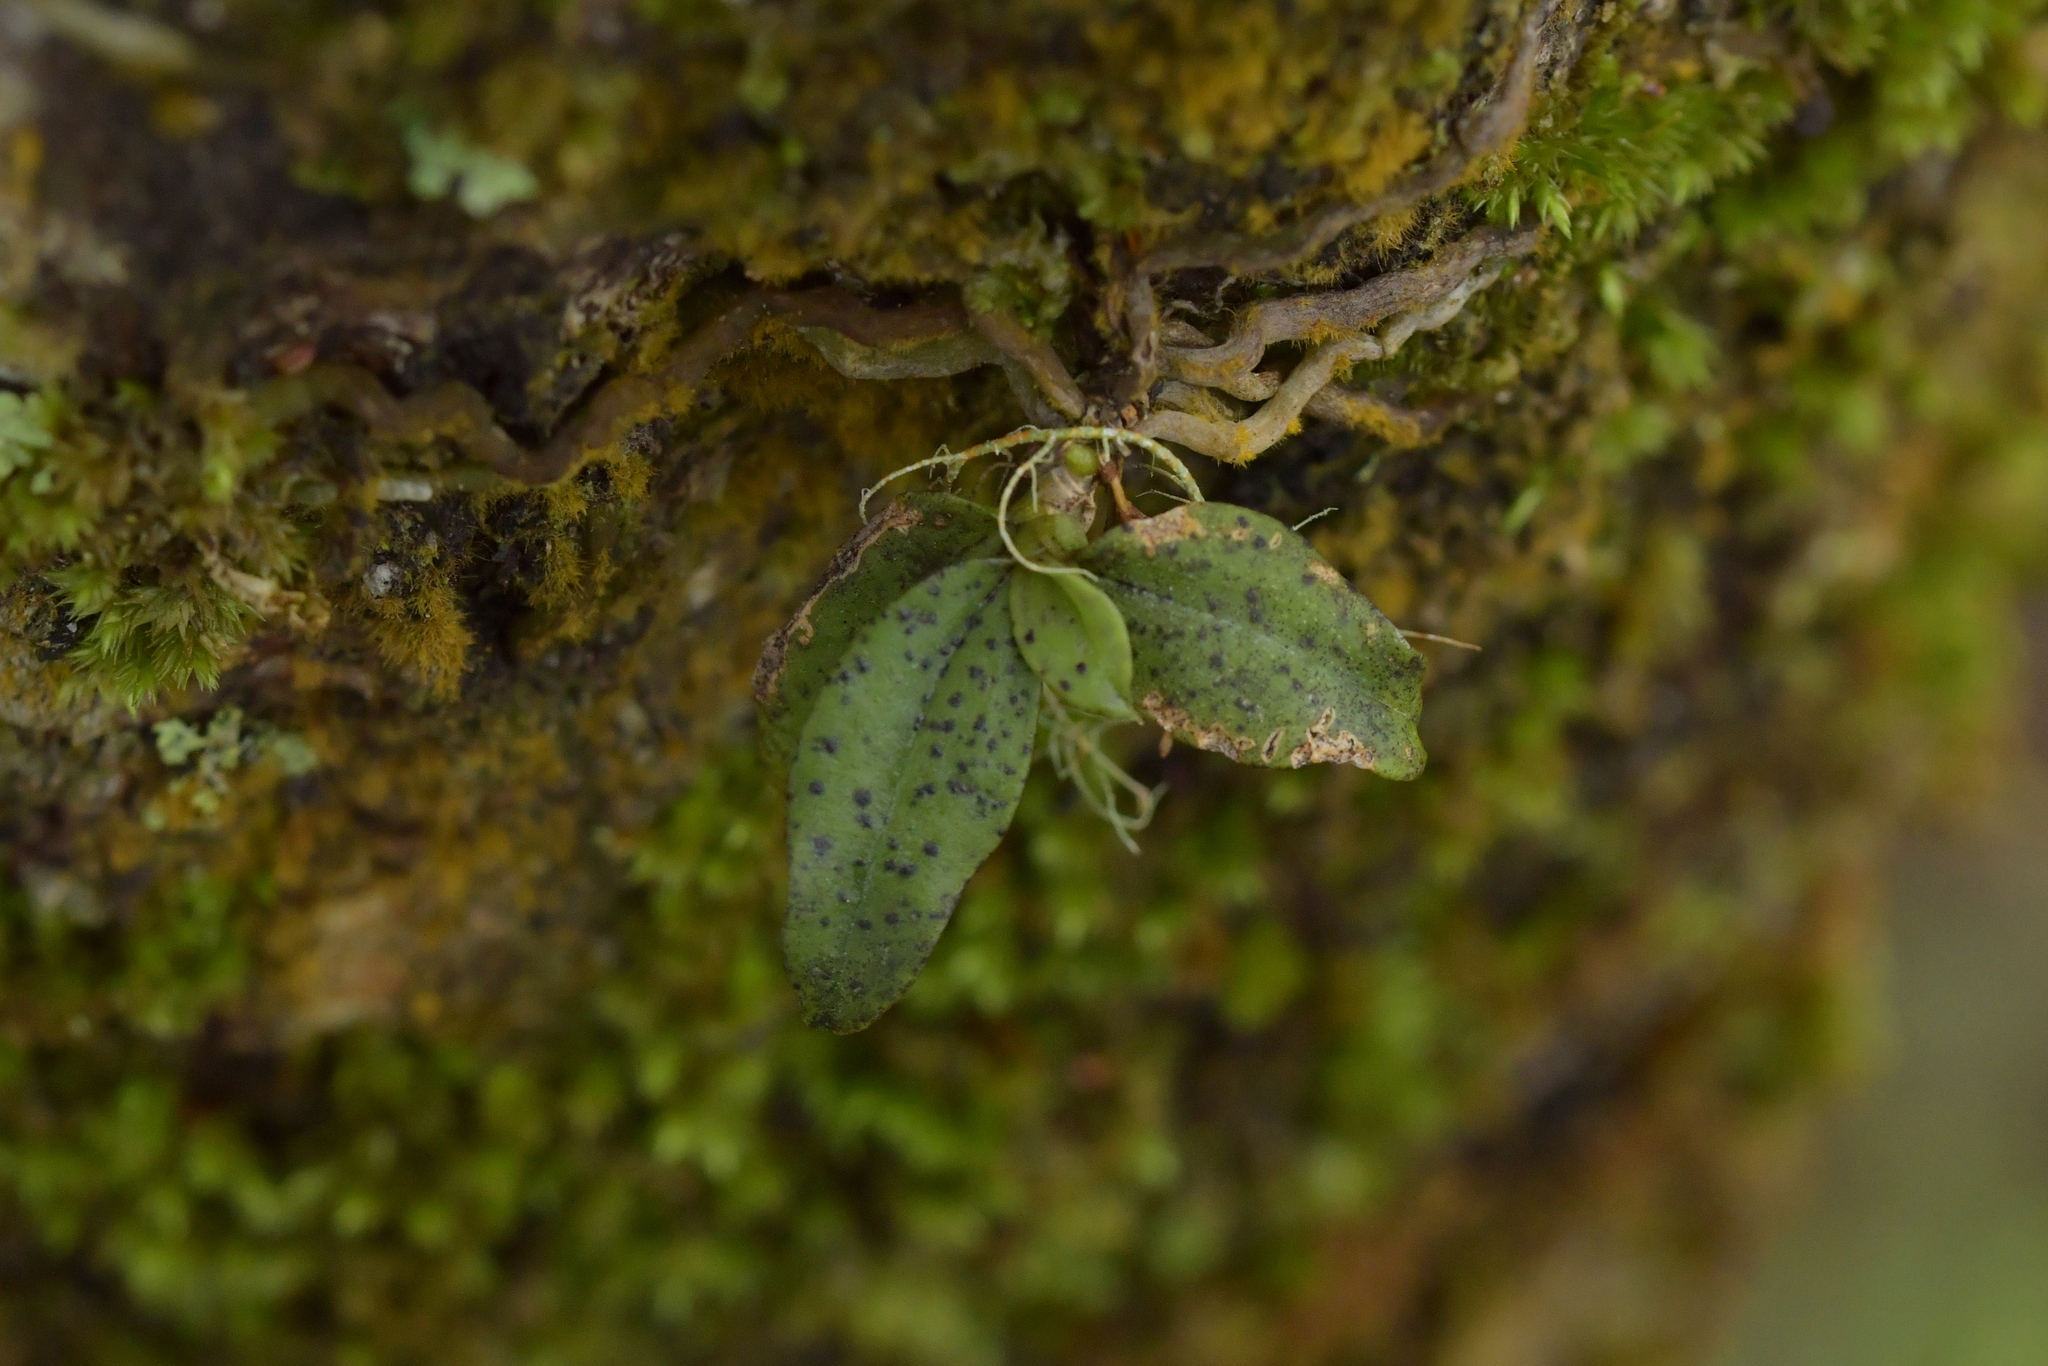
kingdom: Plantae
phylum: Tracheophyta
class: Liliopsida
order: Asparagales
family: Orchidaceae
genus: Drymoanthus
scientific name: Drymoanthus flavus
